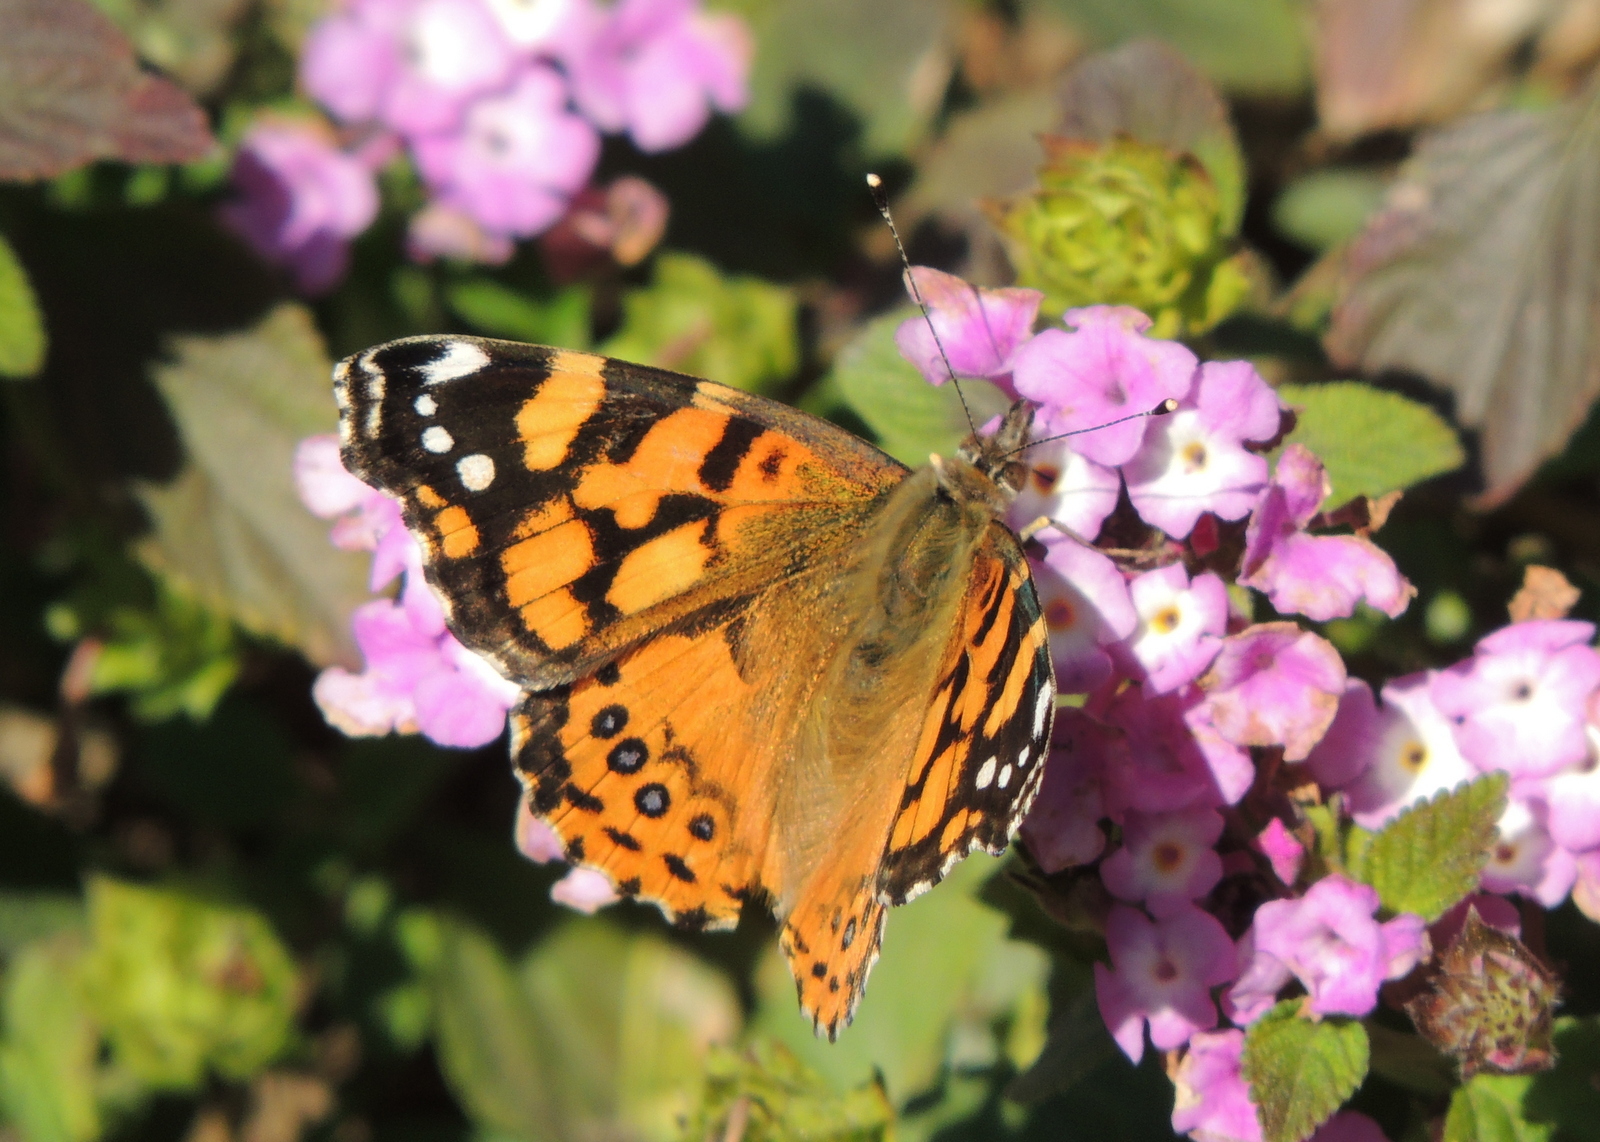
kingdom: Animalia
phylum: Arthropoda
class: Insecta
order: Lepidoptera
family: Nymphalidae
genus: Vanessa
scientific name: Vanessa annabella
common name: West coast lady
